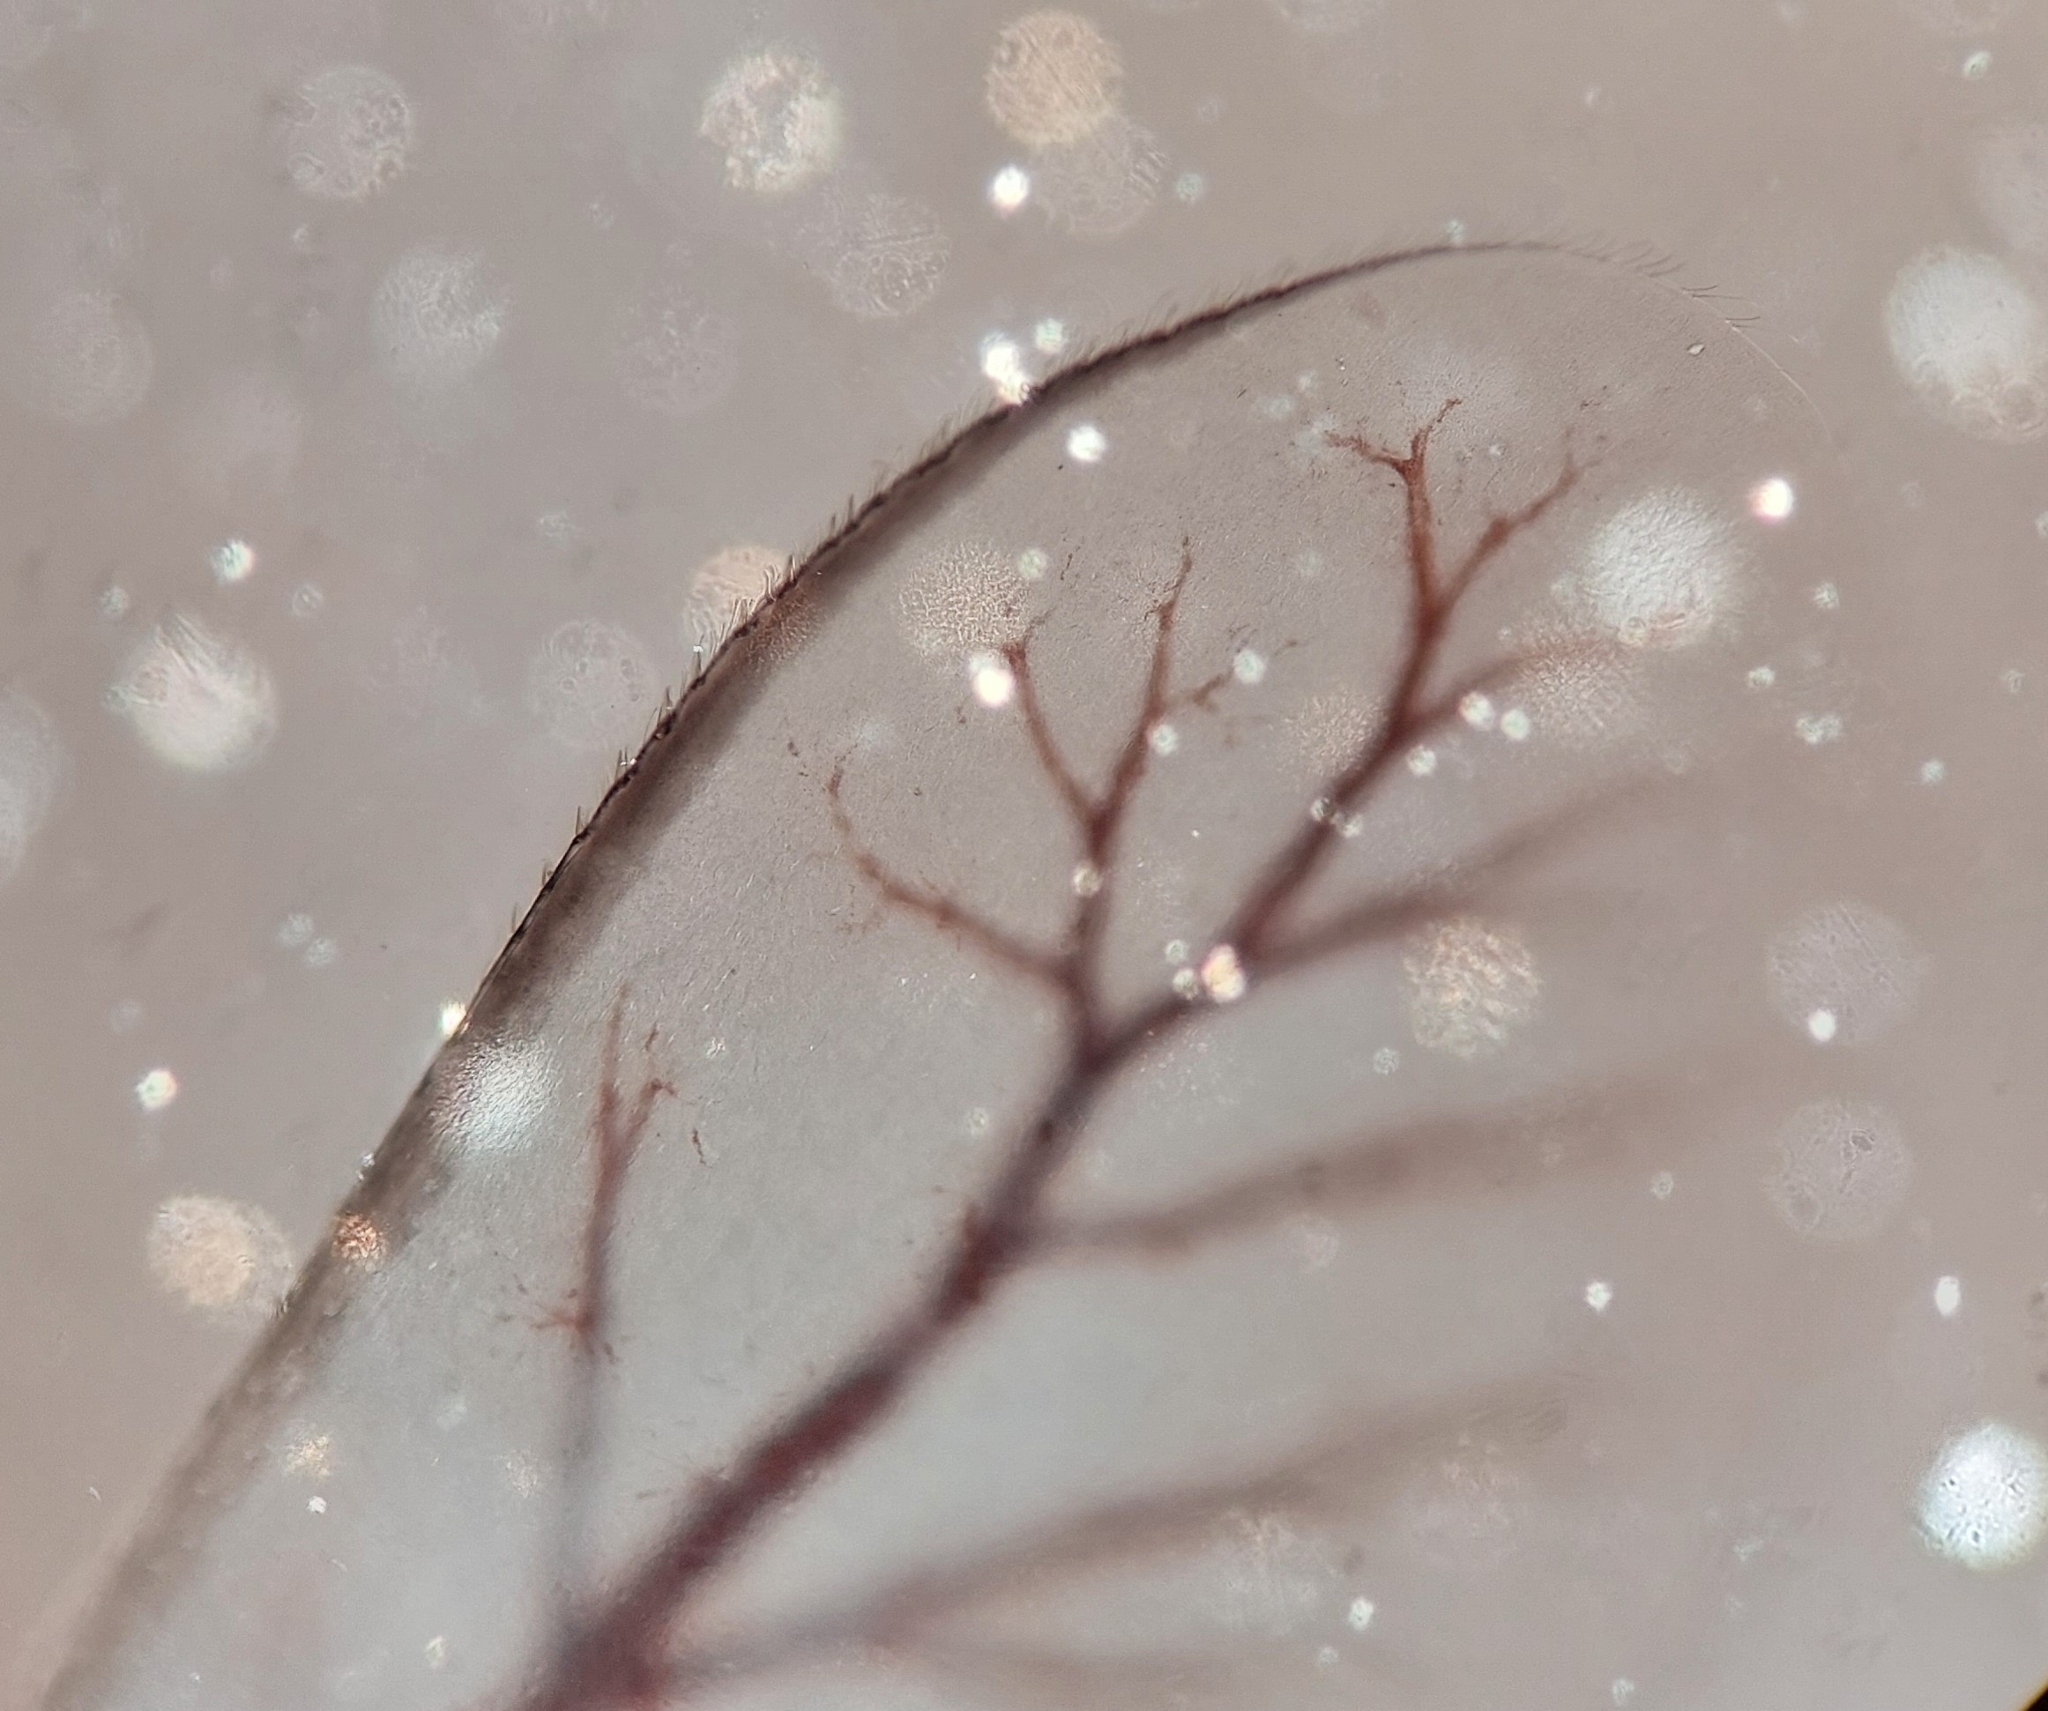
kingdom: Animalia
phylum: Arthropoda
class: Insecta
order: Ephemeroptera
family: Baetidae
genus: Baetis
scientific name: Baetis rhodani
